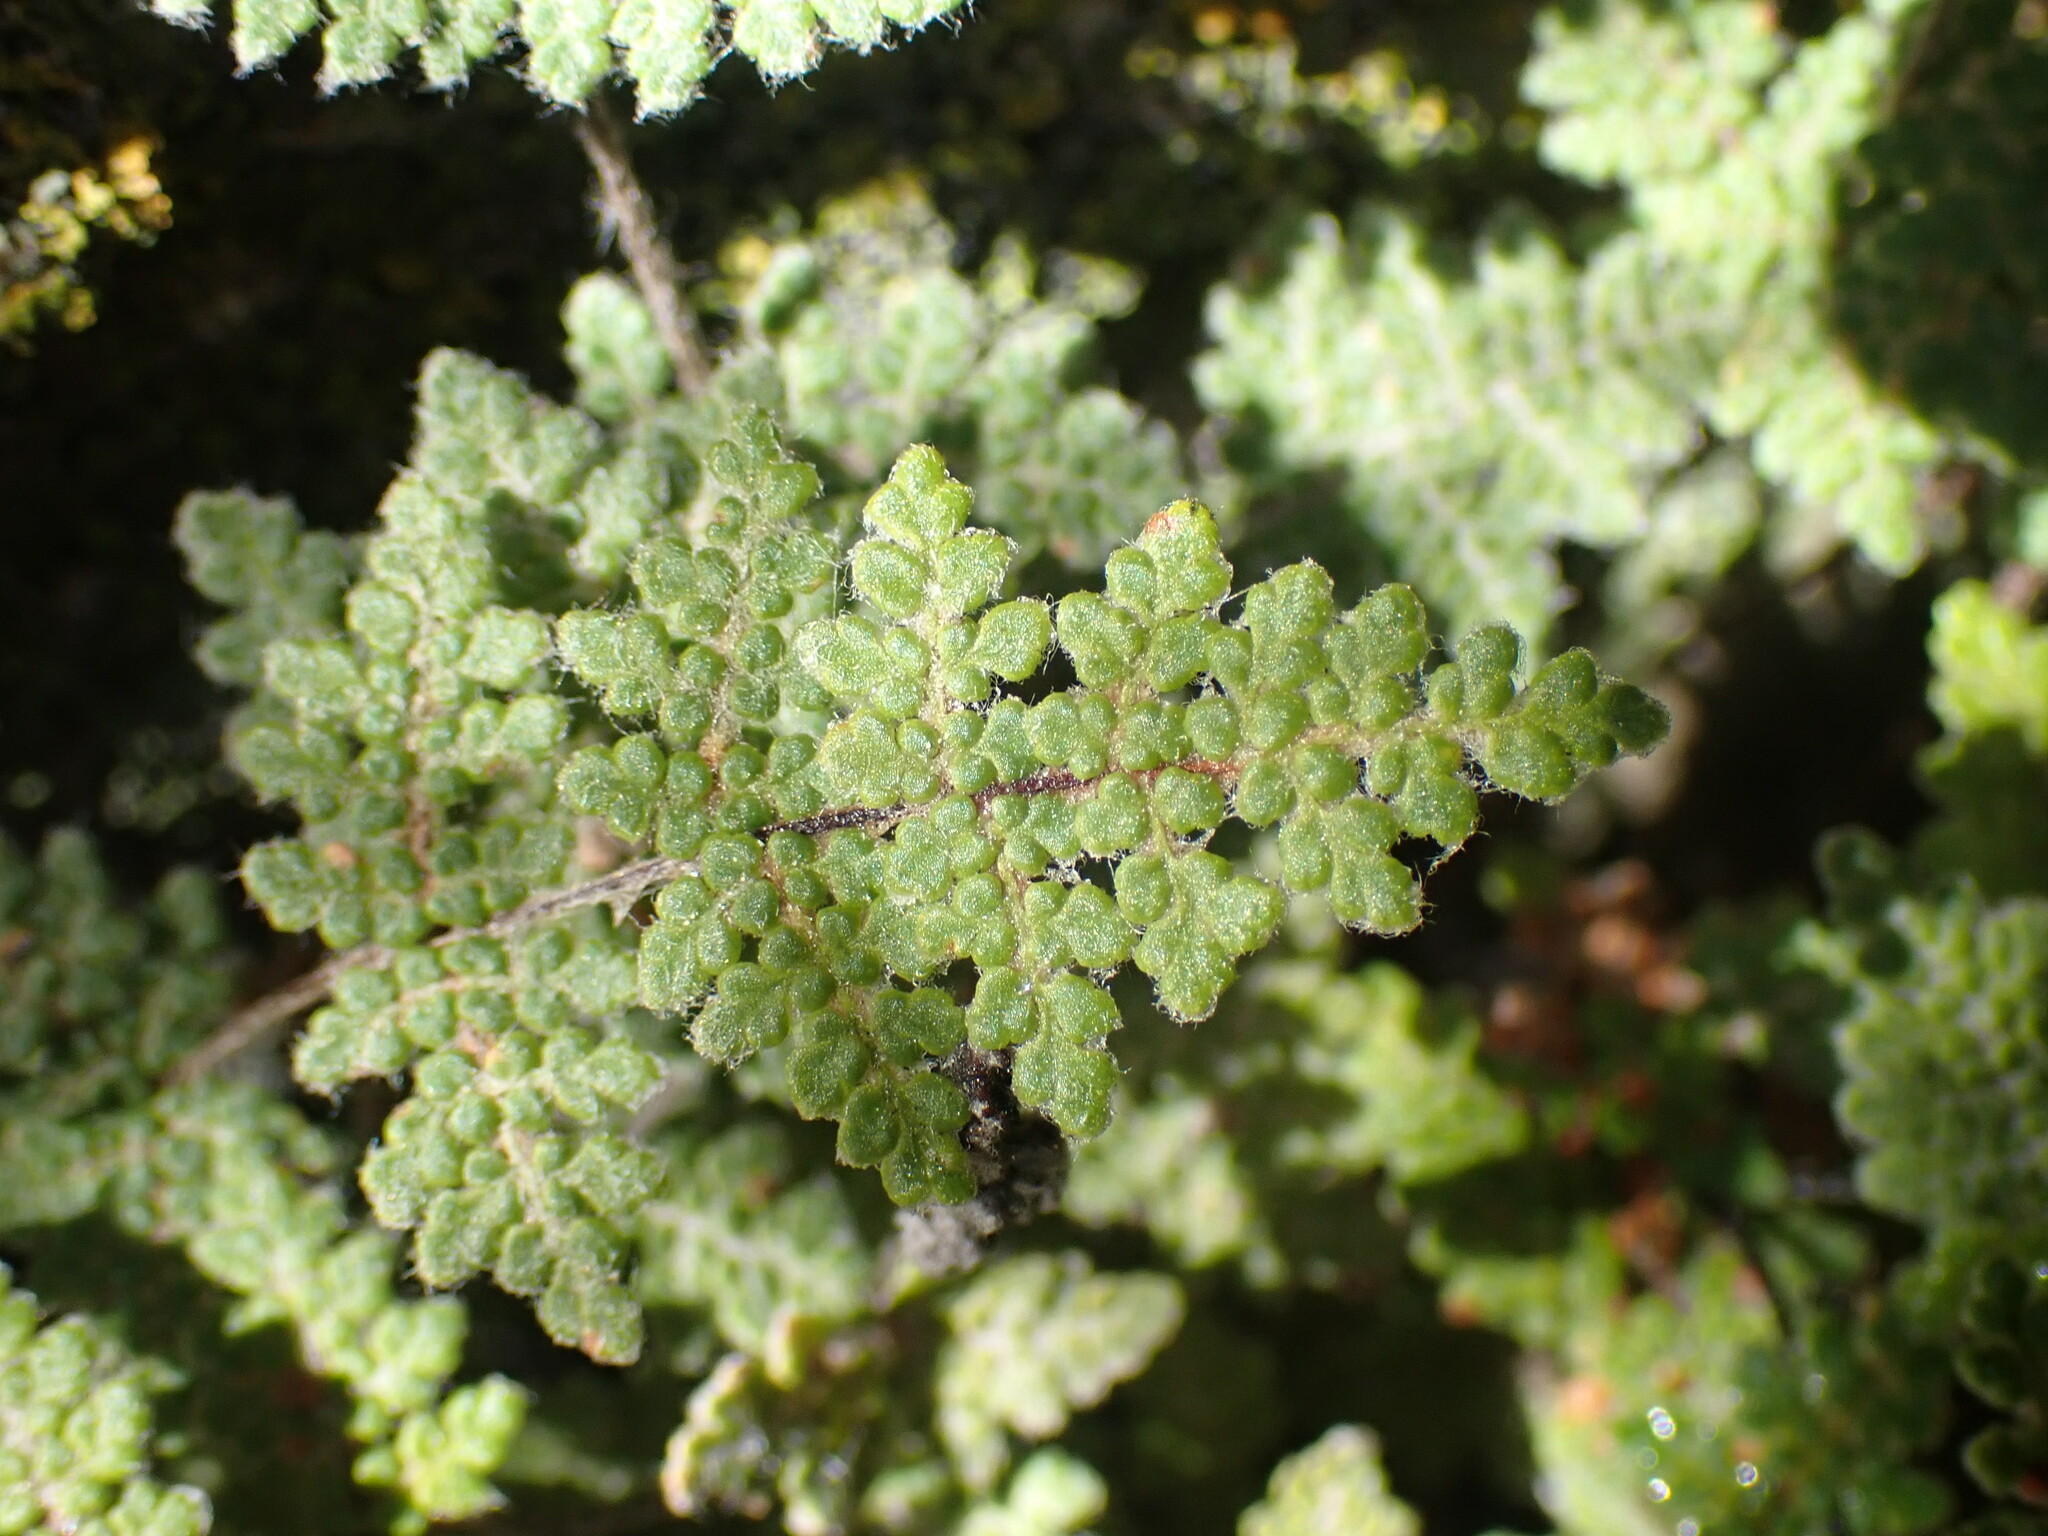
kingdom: Plantae
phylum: Tracheophyta
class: Polypodiopsida
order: Polypodiales
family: Pteridaceae
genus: Myriopteris
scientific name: Myriopteris gracilis
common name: Fee's lip fern
